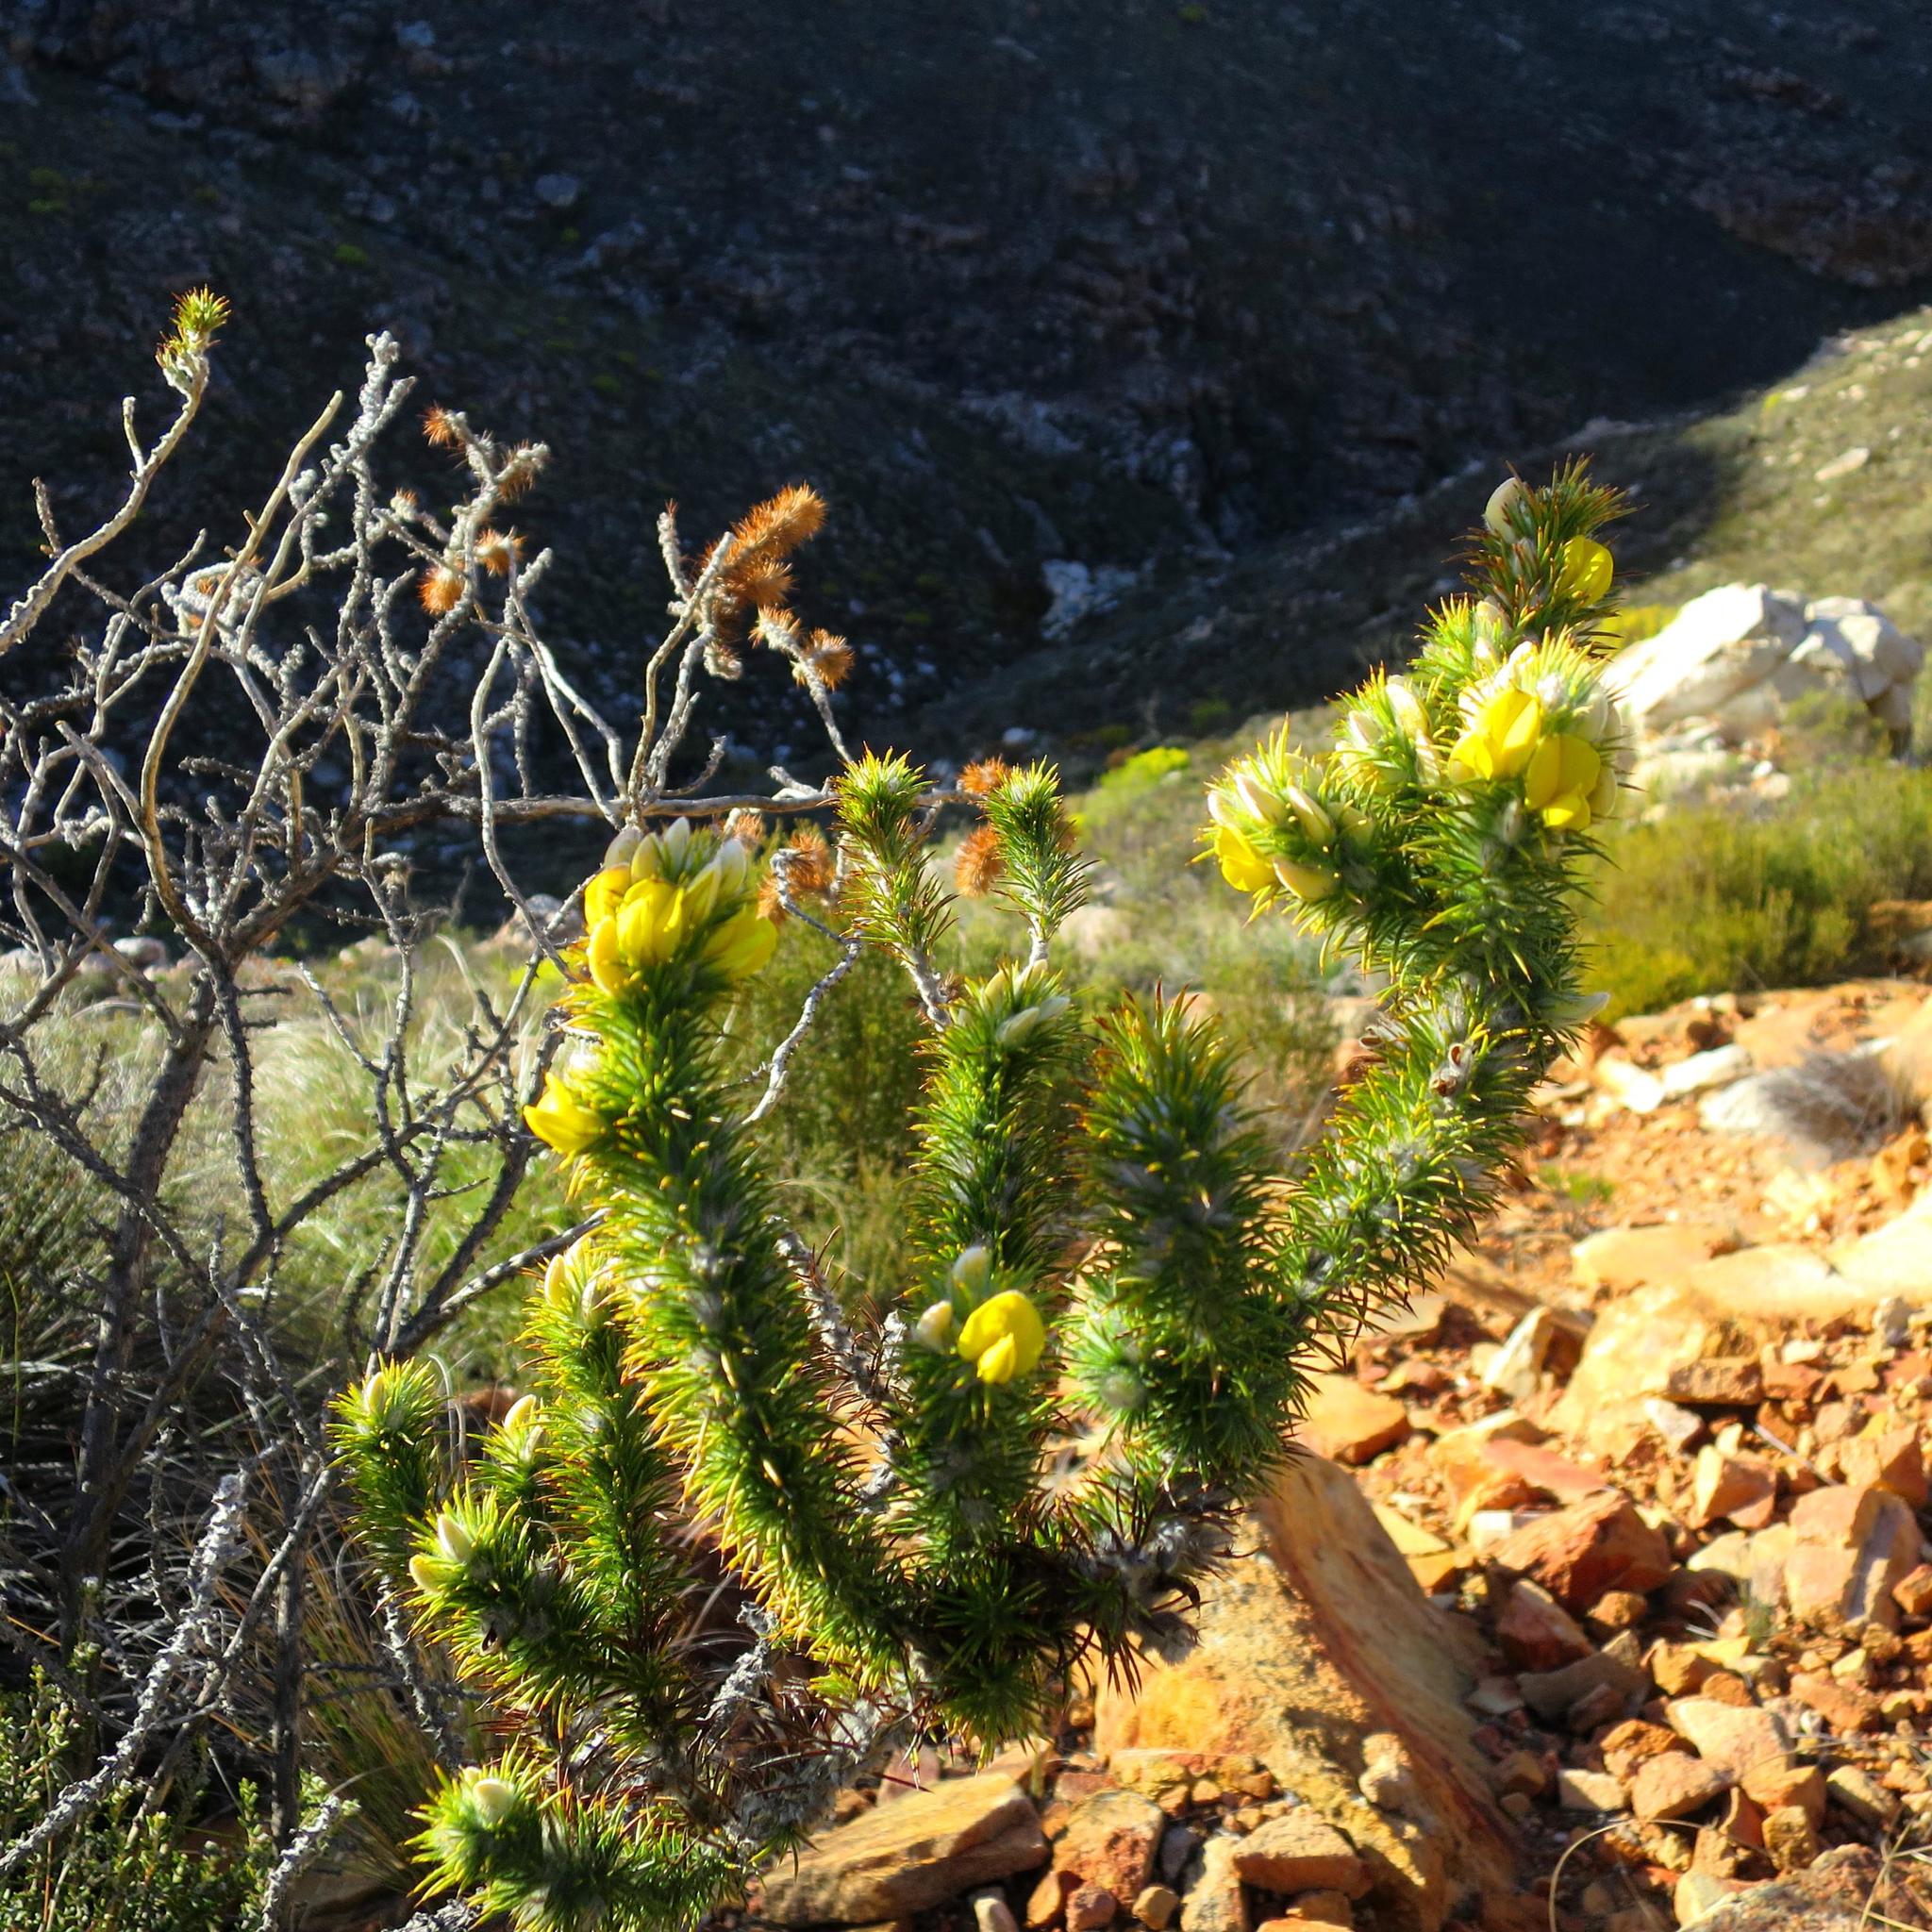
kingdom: Plantae
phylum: Tracheophyta
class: Magnoliopsida
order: Fabales
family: Fabaceae
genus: Aspalathus
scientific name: Aspalathus shawii
